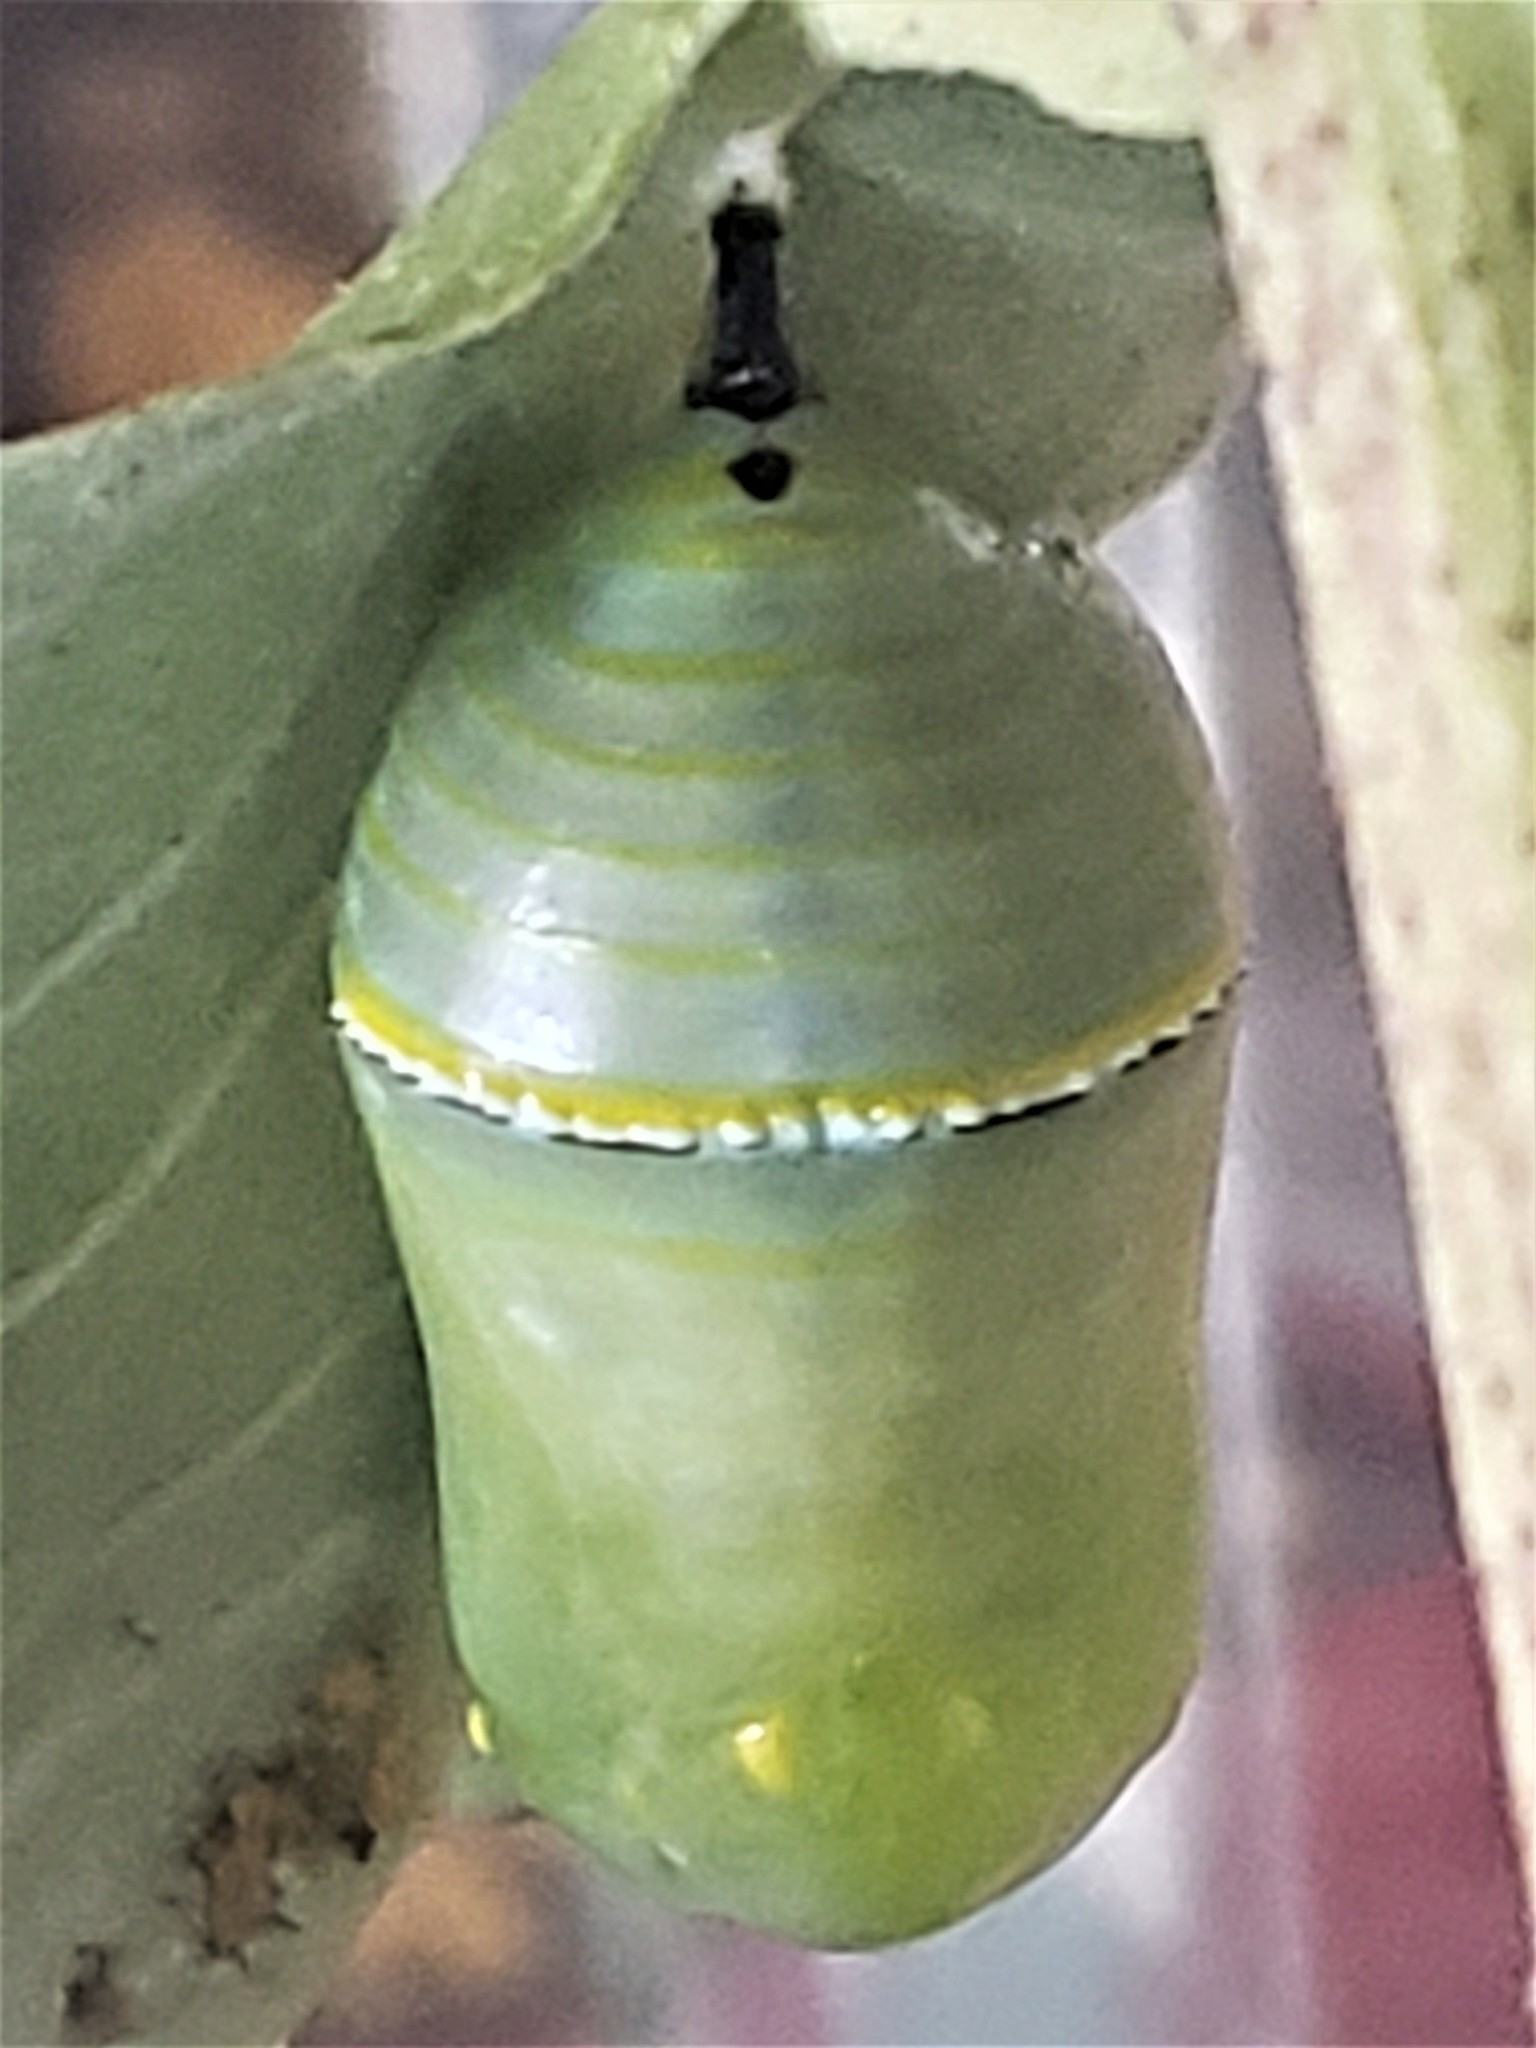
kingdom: Animalia
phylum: Arthropoda
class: Insecta
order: Lepidoptera
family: Nymphalidae
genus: Danaus
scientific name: Danaus plexippus
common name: Monarch
